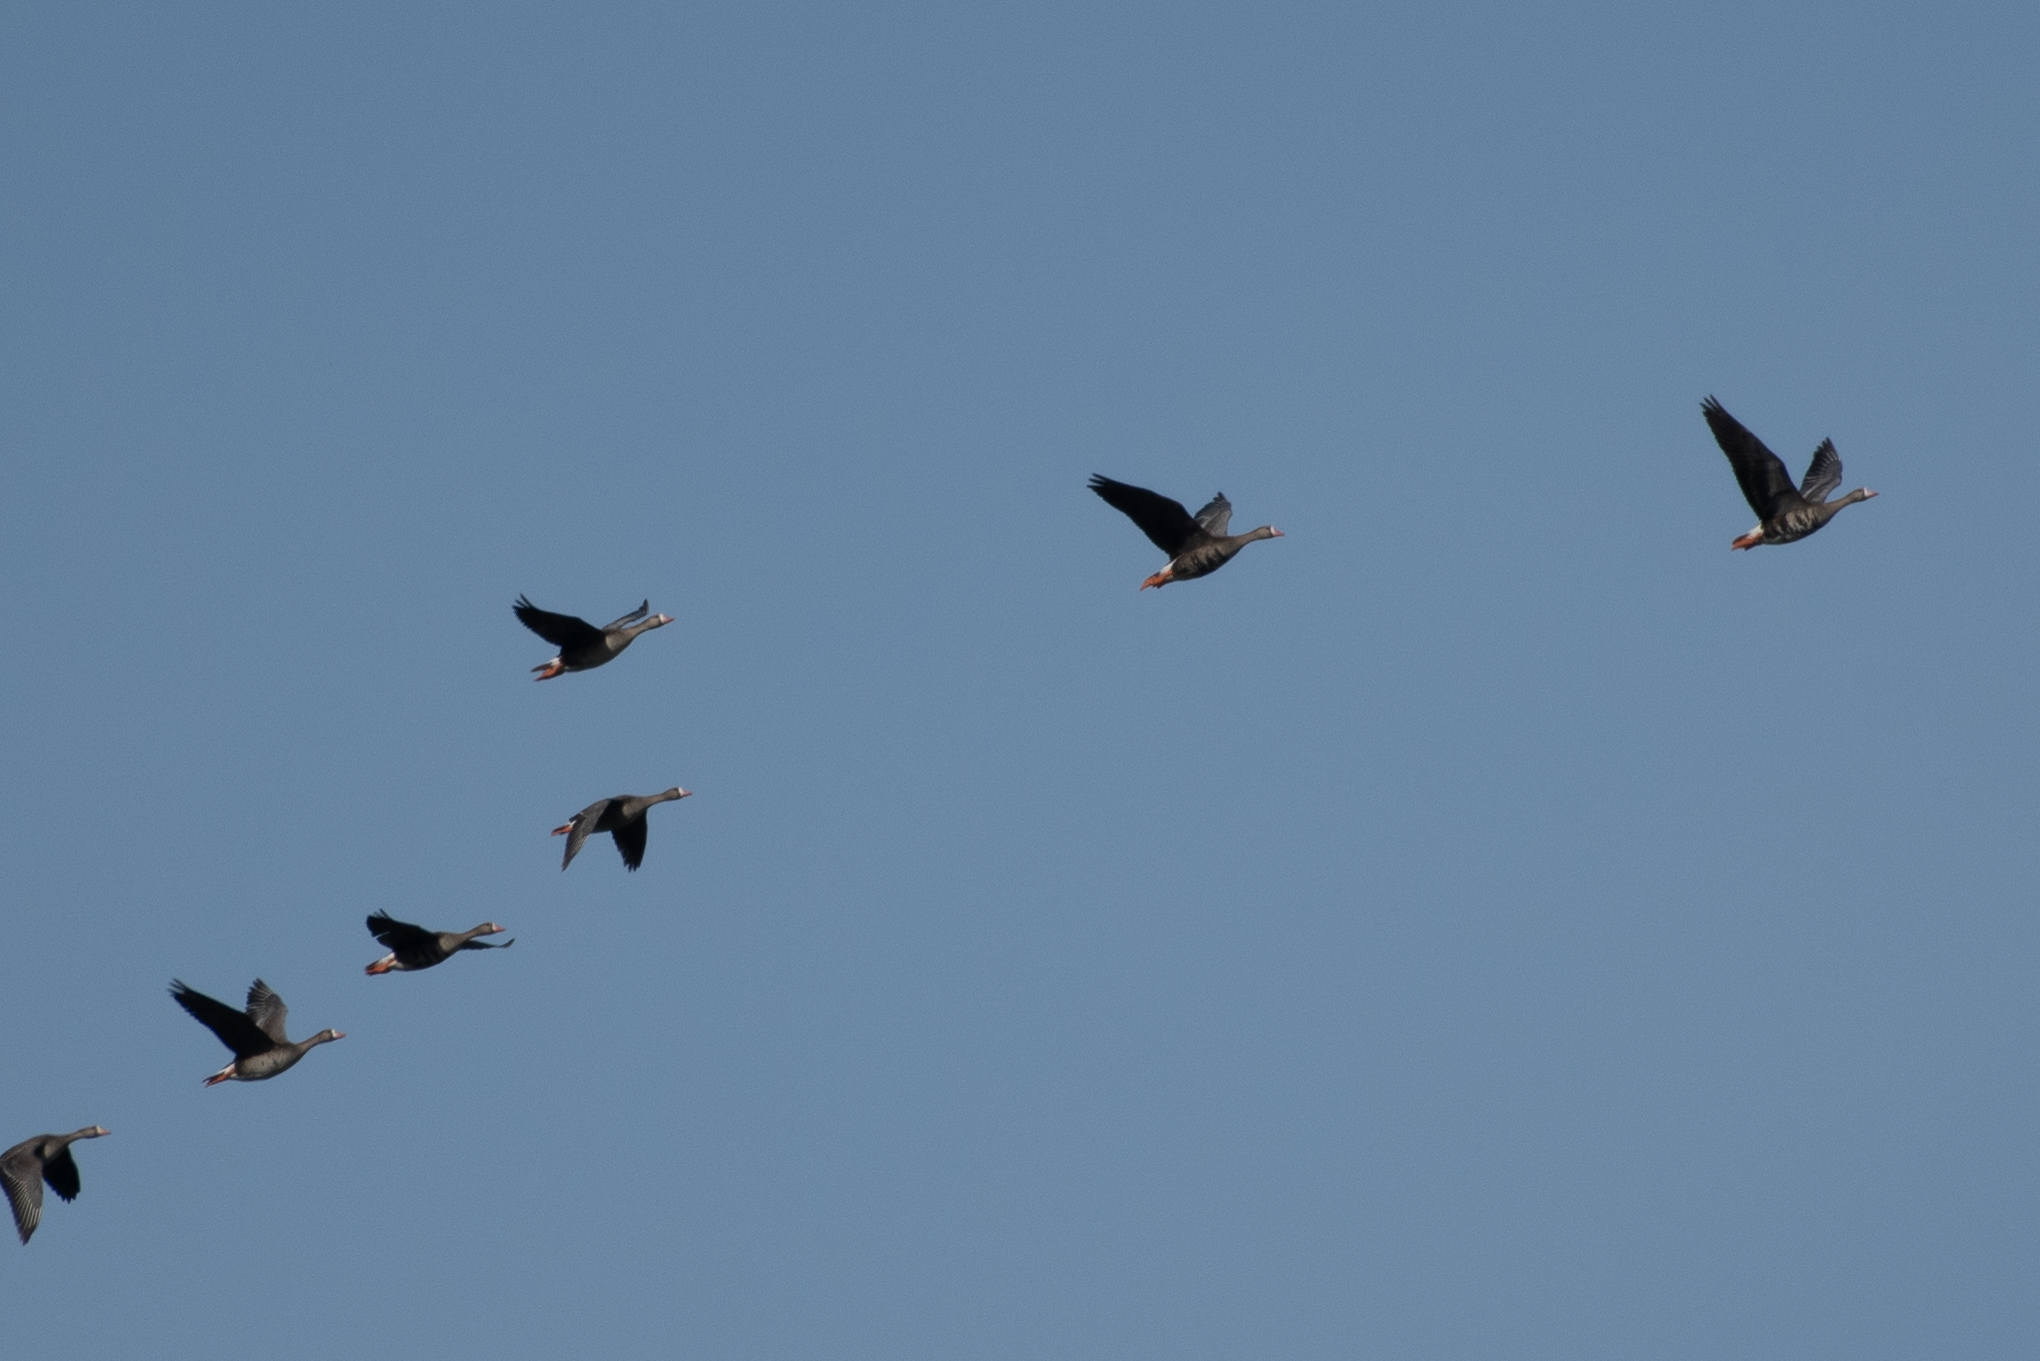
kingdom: Animalia
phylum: Chordata
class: Aves
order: Anseriformes
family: Anatidae
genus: Anser
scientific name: Anser albifrons
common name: Greater white-fronted goose
